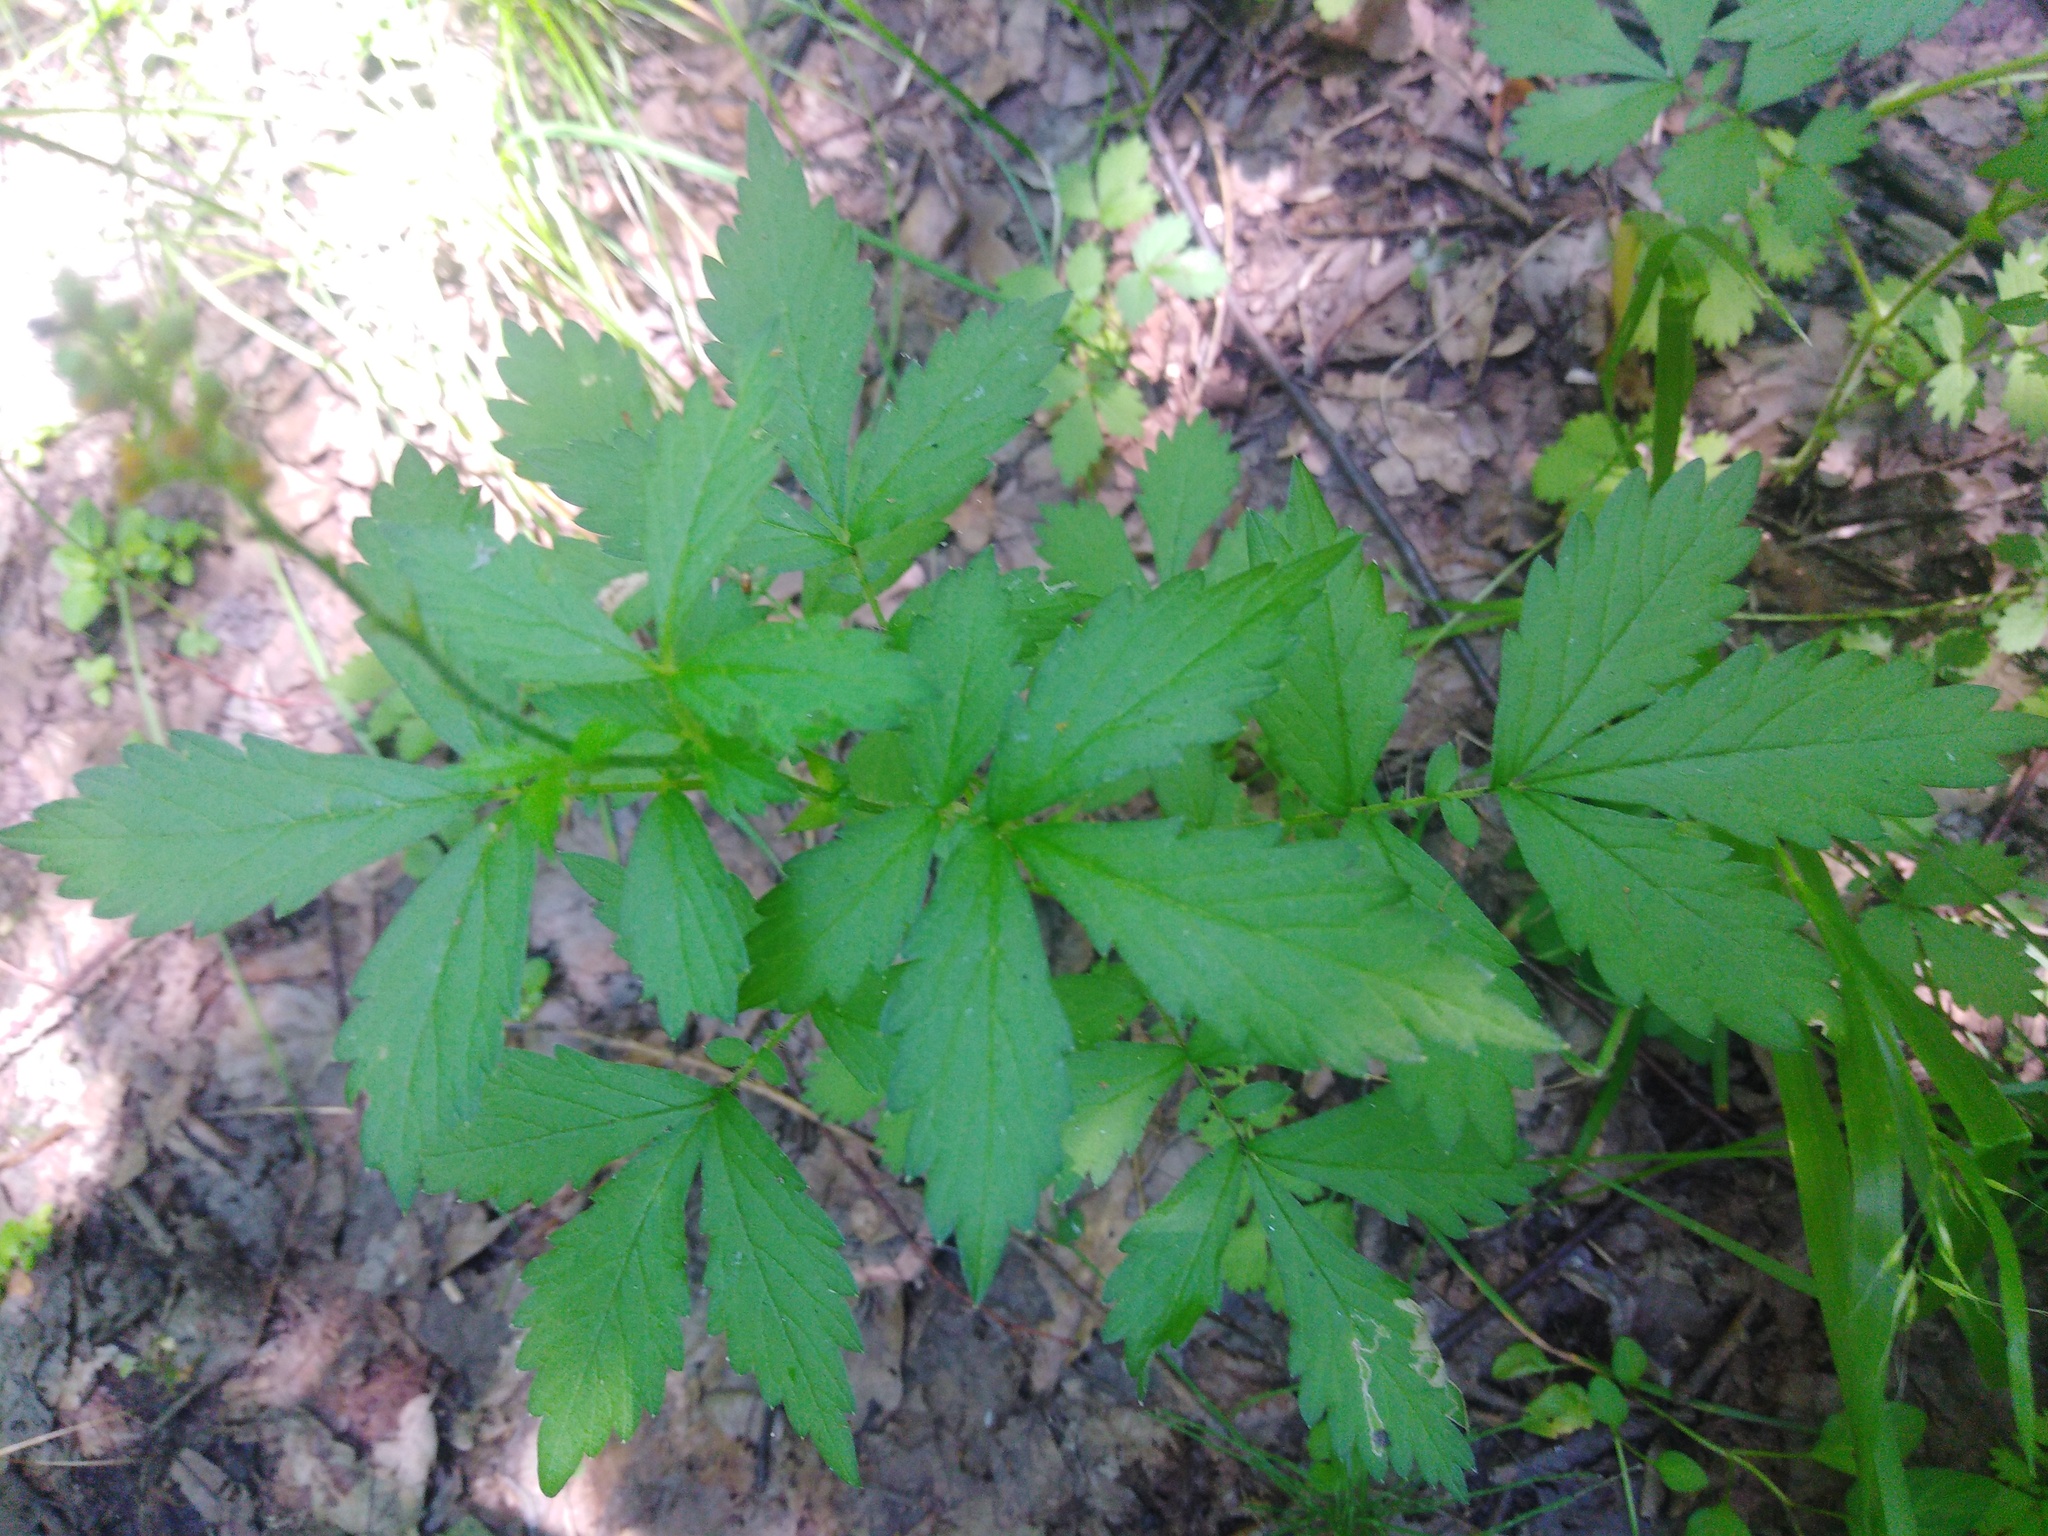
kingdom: Plantae
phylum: Tracheophyta
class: Magnoliopsida
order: Rosales
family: Rosaceae
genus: Agrimonia
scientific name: Agrimonia pilosa
